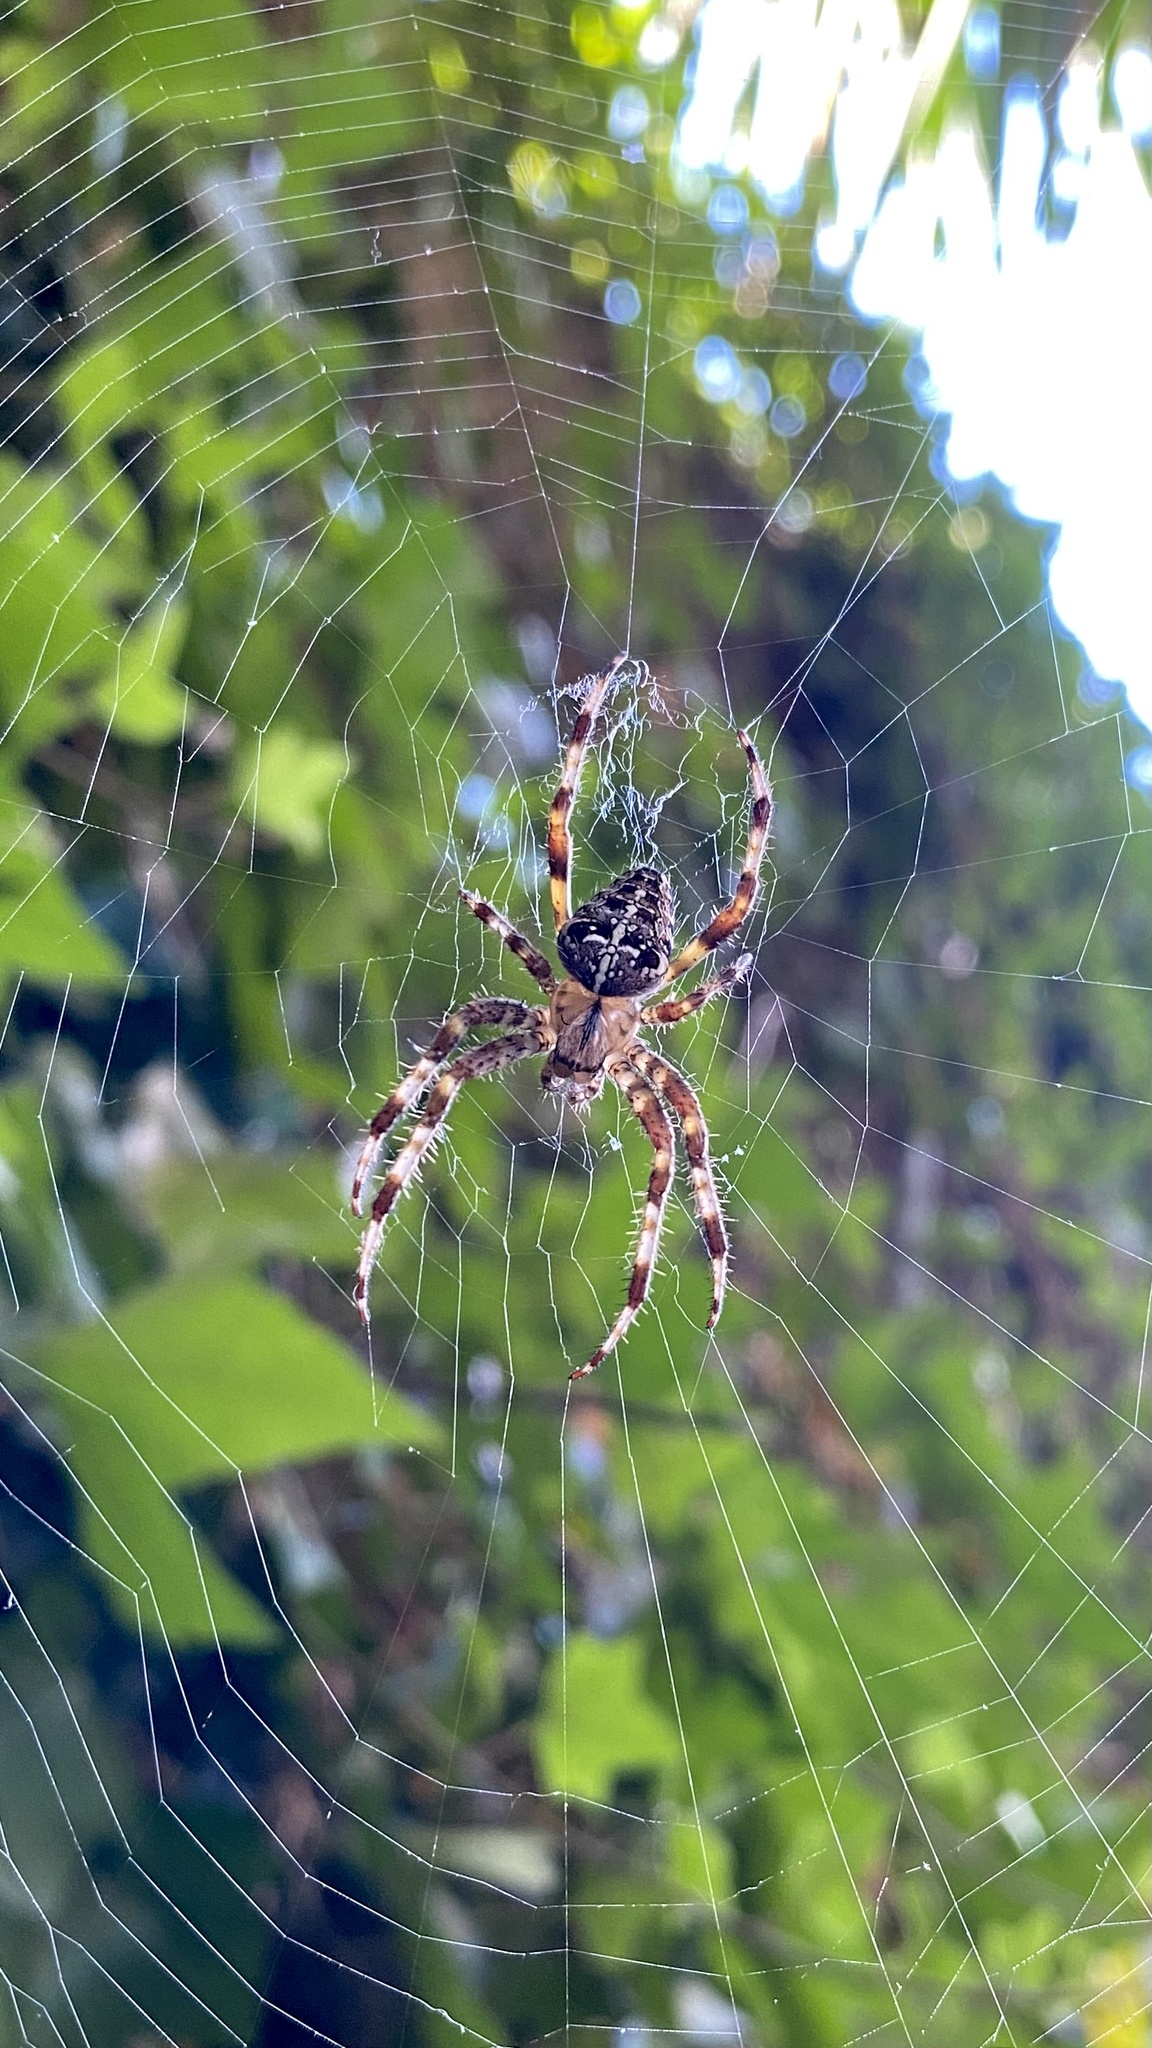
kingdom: Animalia
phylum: Arthropoda
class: Arachnida
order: Araneae
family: Araneidae
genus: Araneus
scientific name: Araneus diadematus
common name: Cross orbweaver
